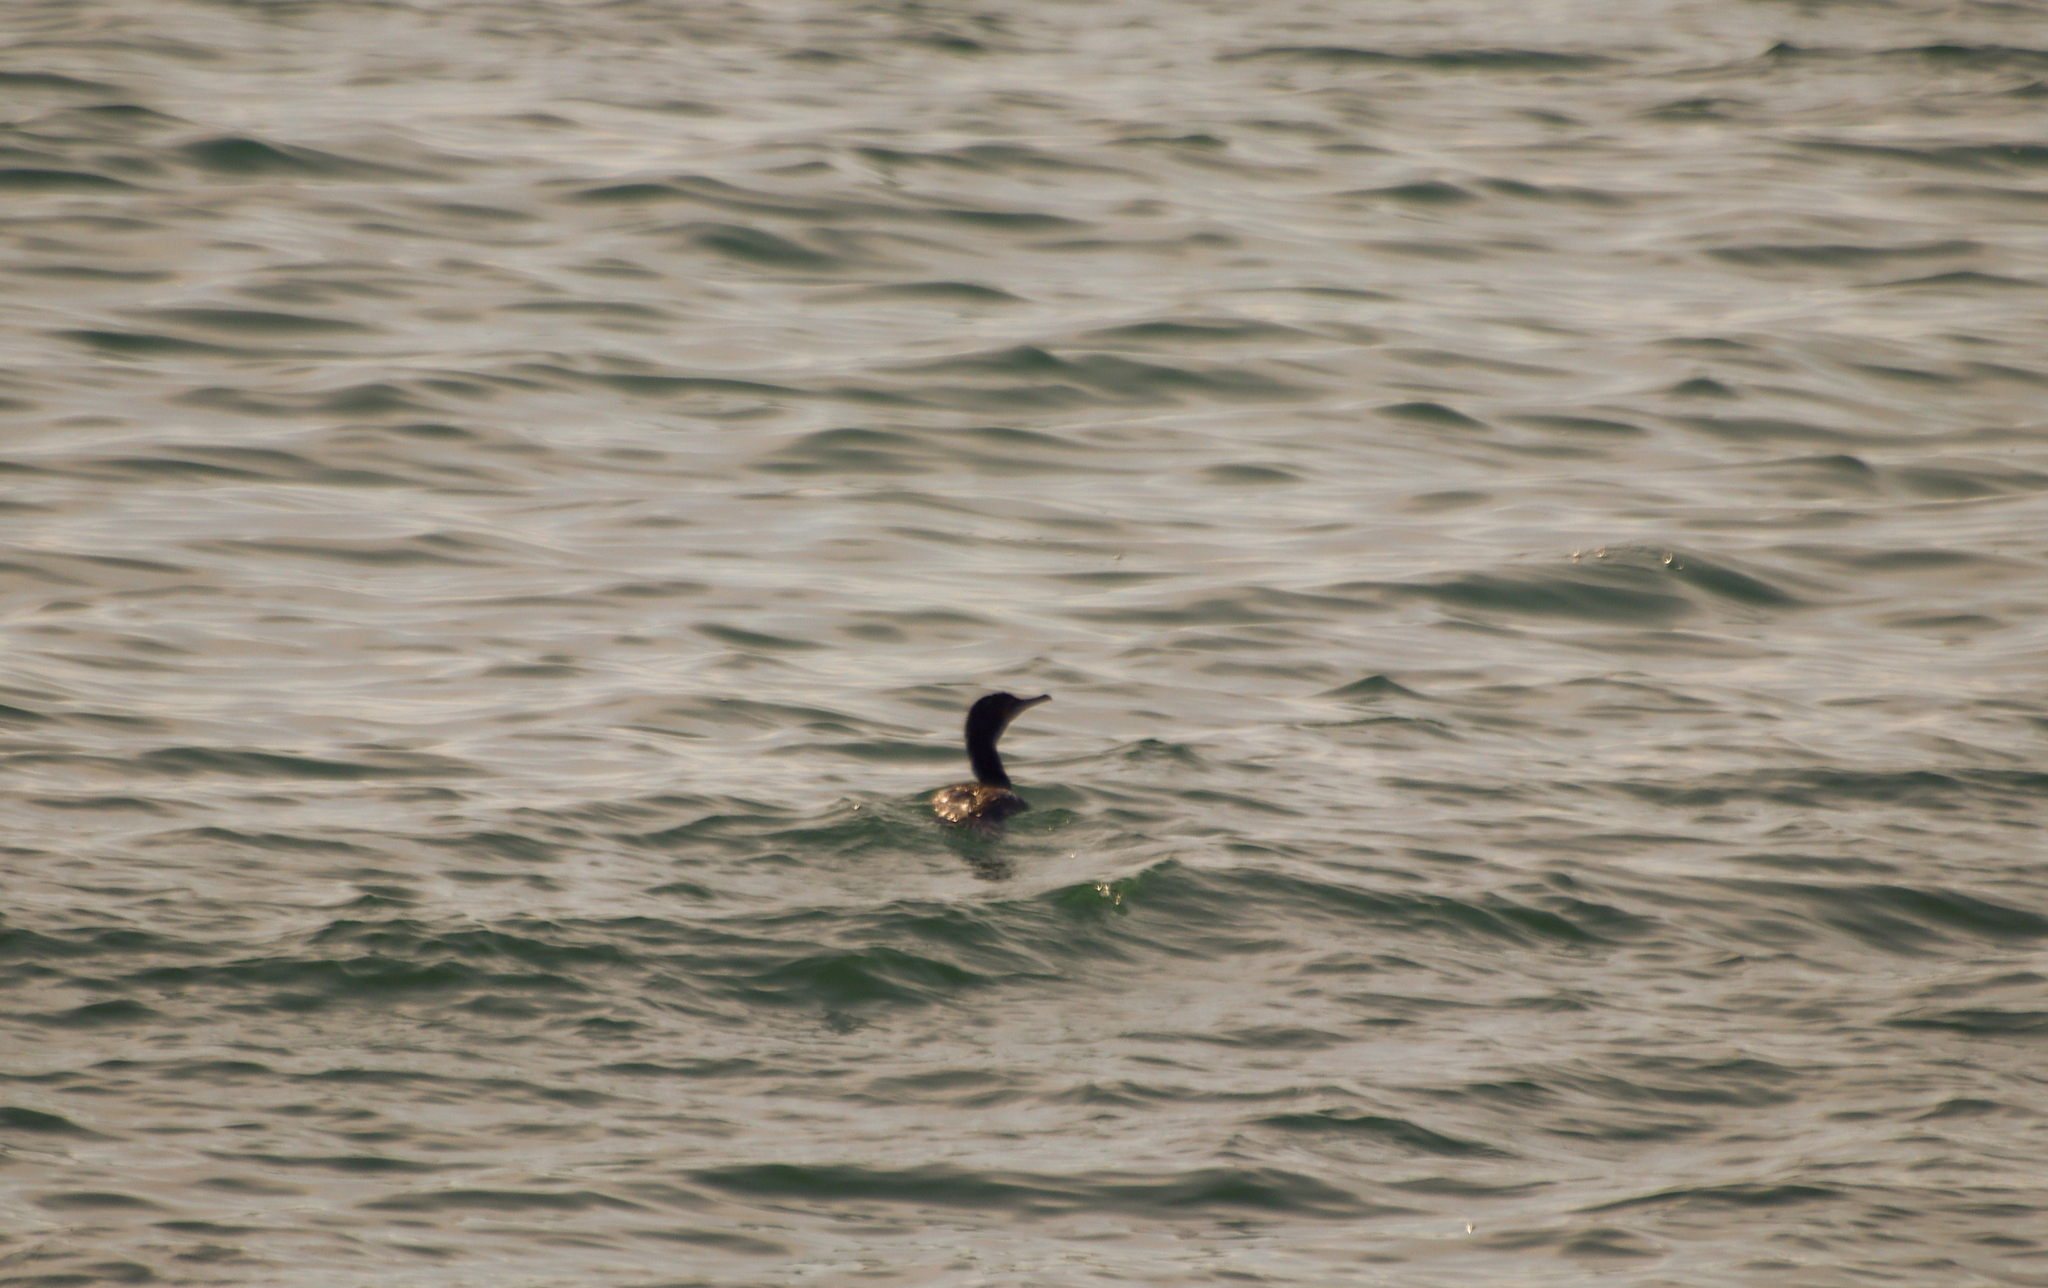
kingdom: Animalia
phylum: Chordata
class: Aves
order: Suliformes
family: Phalacrocoracidae
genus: Phalacrocorax
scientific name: Phalacrocorax auritus
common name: Double-crested cormorant
